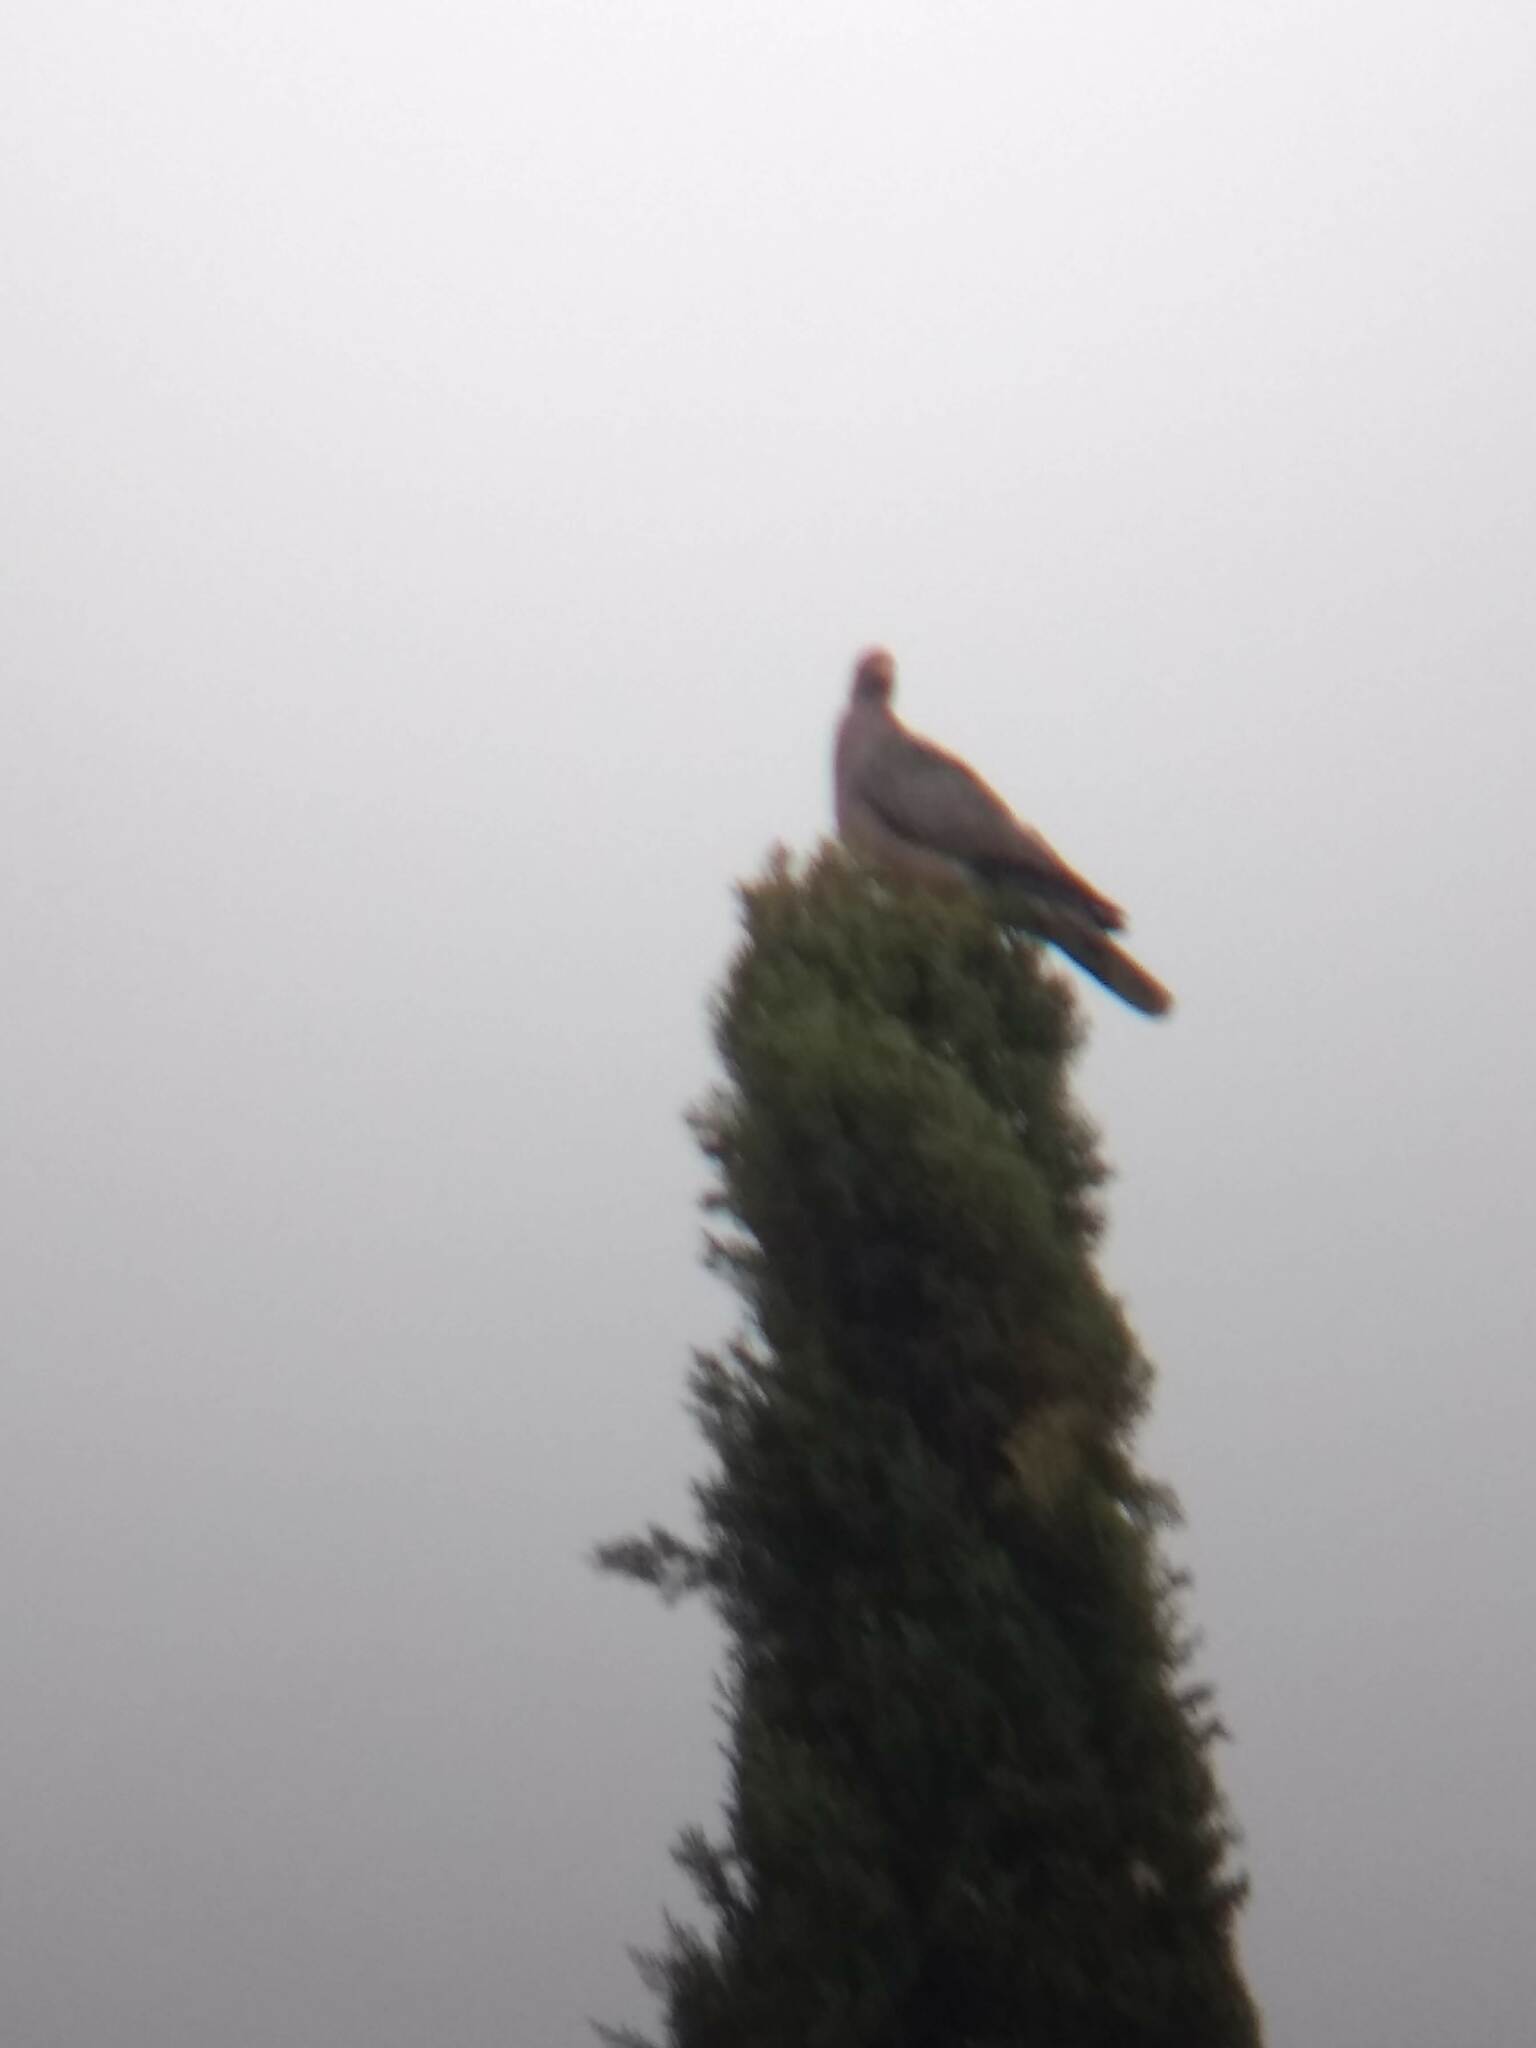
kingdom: Animalia
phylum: Chordata
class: Aves
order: Columbiformes
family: Columbidae
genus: Patagioenas
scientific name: Patagioenas fasciata
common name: Band-tailed pigeon
